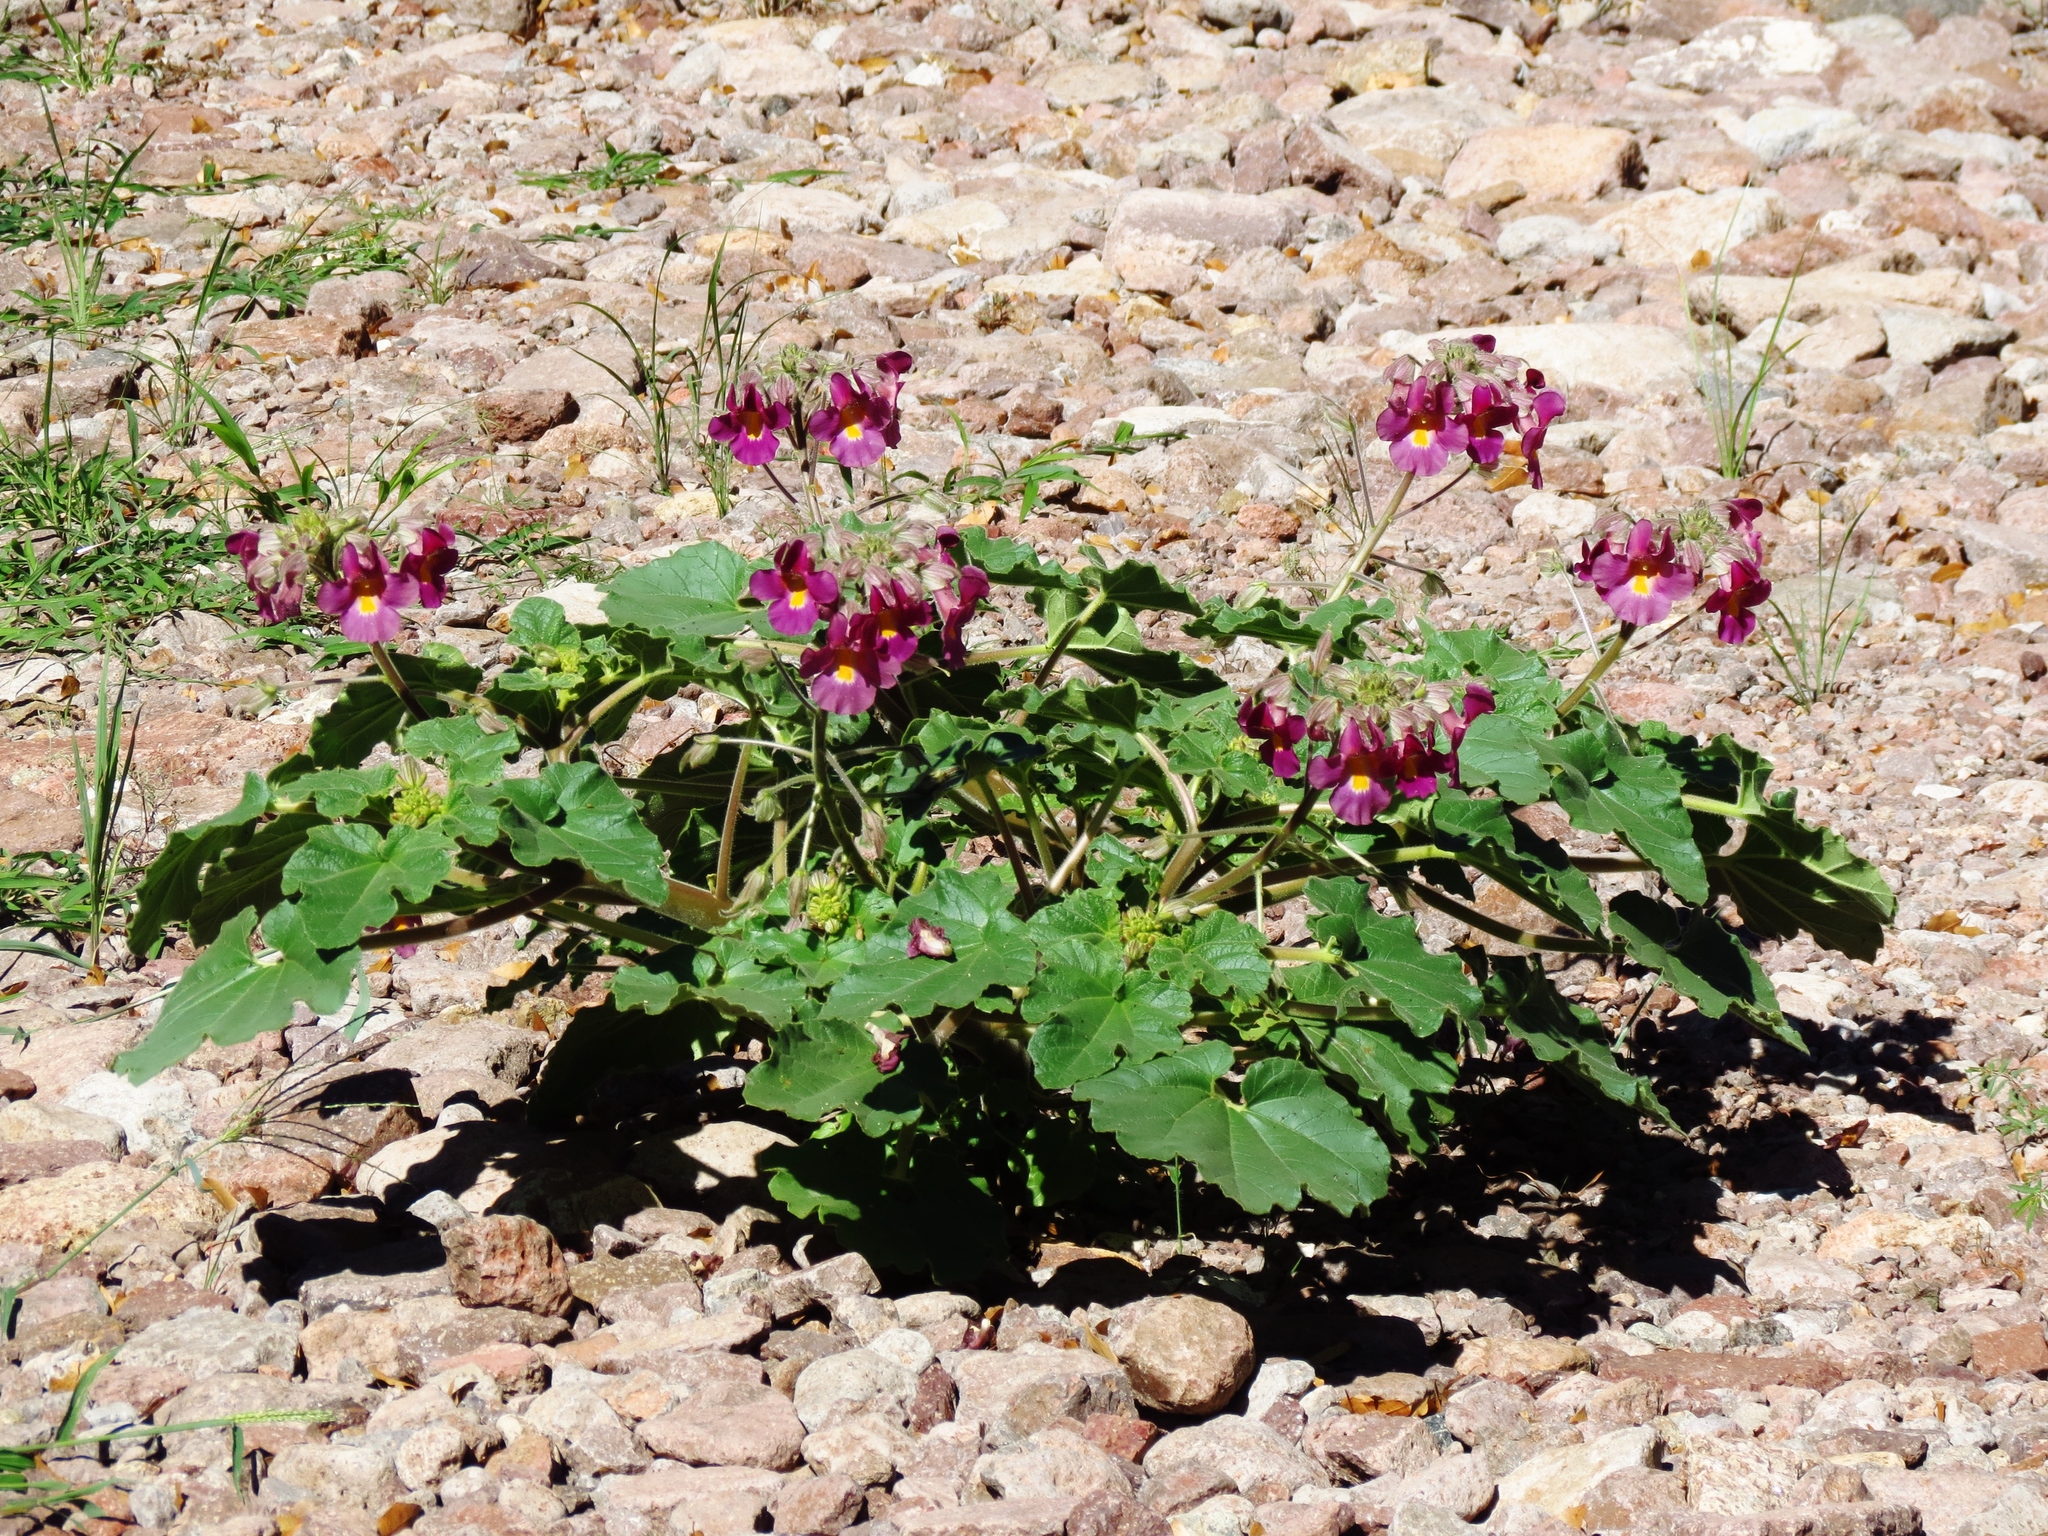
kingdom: Plantae
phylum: Tracheophyta
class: Magnoliopsida
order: Lamiales
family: Martyniaceae
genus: Proboscidea
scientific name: Proboscidea louisianica
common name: Elephant tusks
